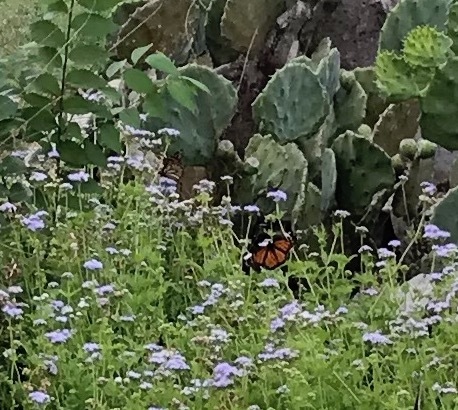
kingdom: Animalia
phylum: Arthropoda
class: Insecta
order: Lepidoptera
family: Nymphalidae
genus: Danaus
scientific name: Danaus plexippus
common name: Monarch
